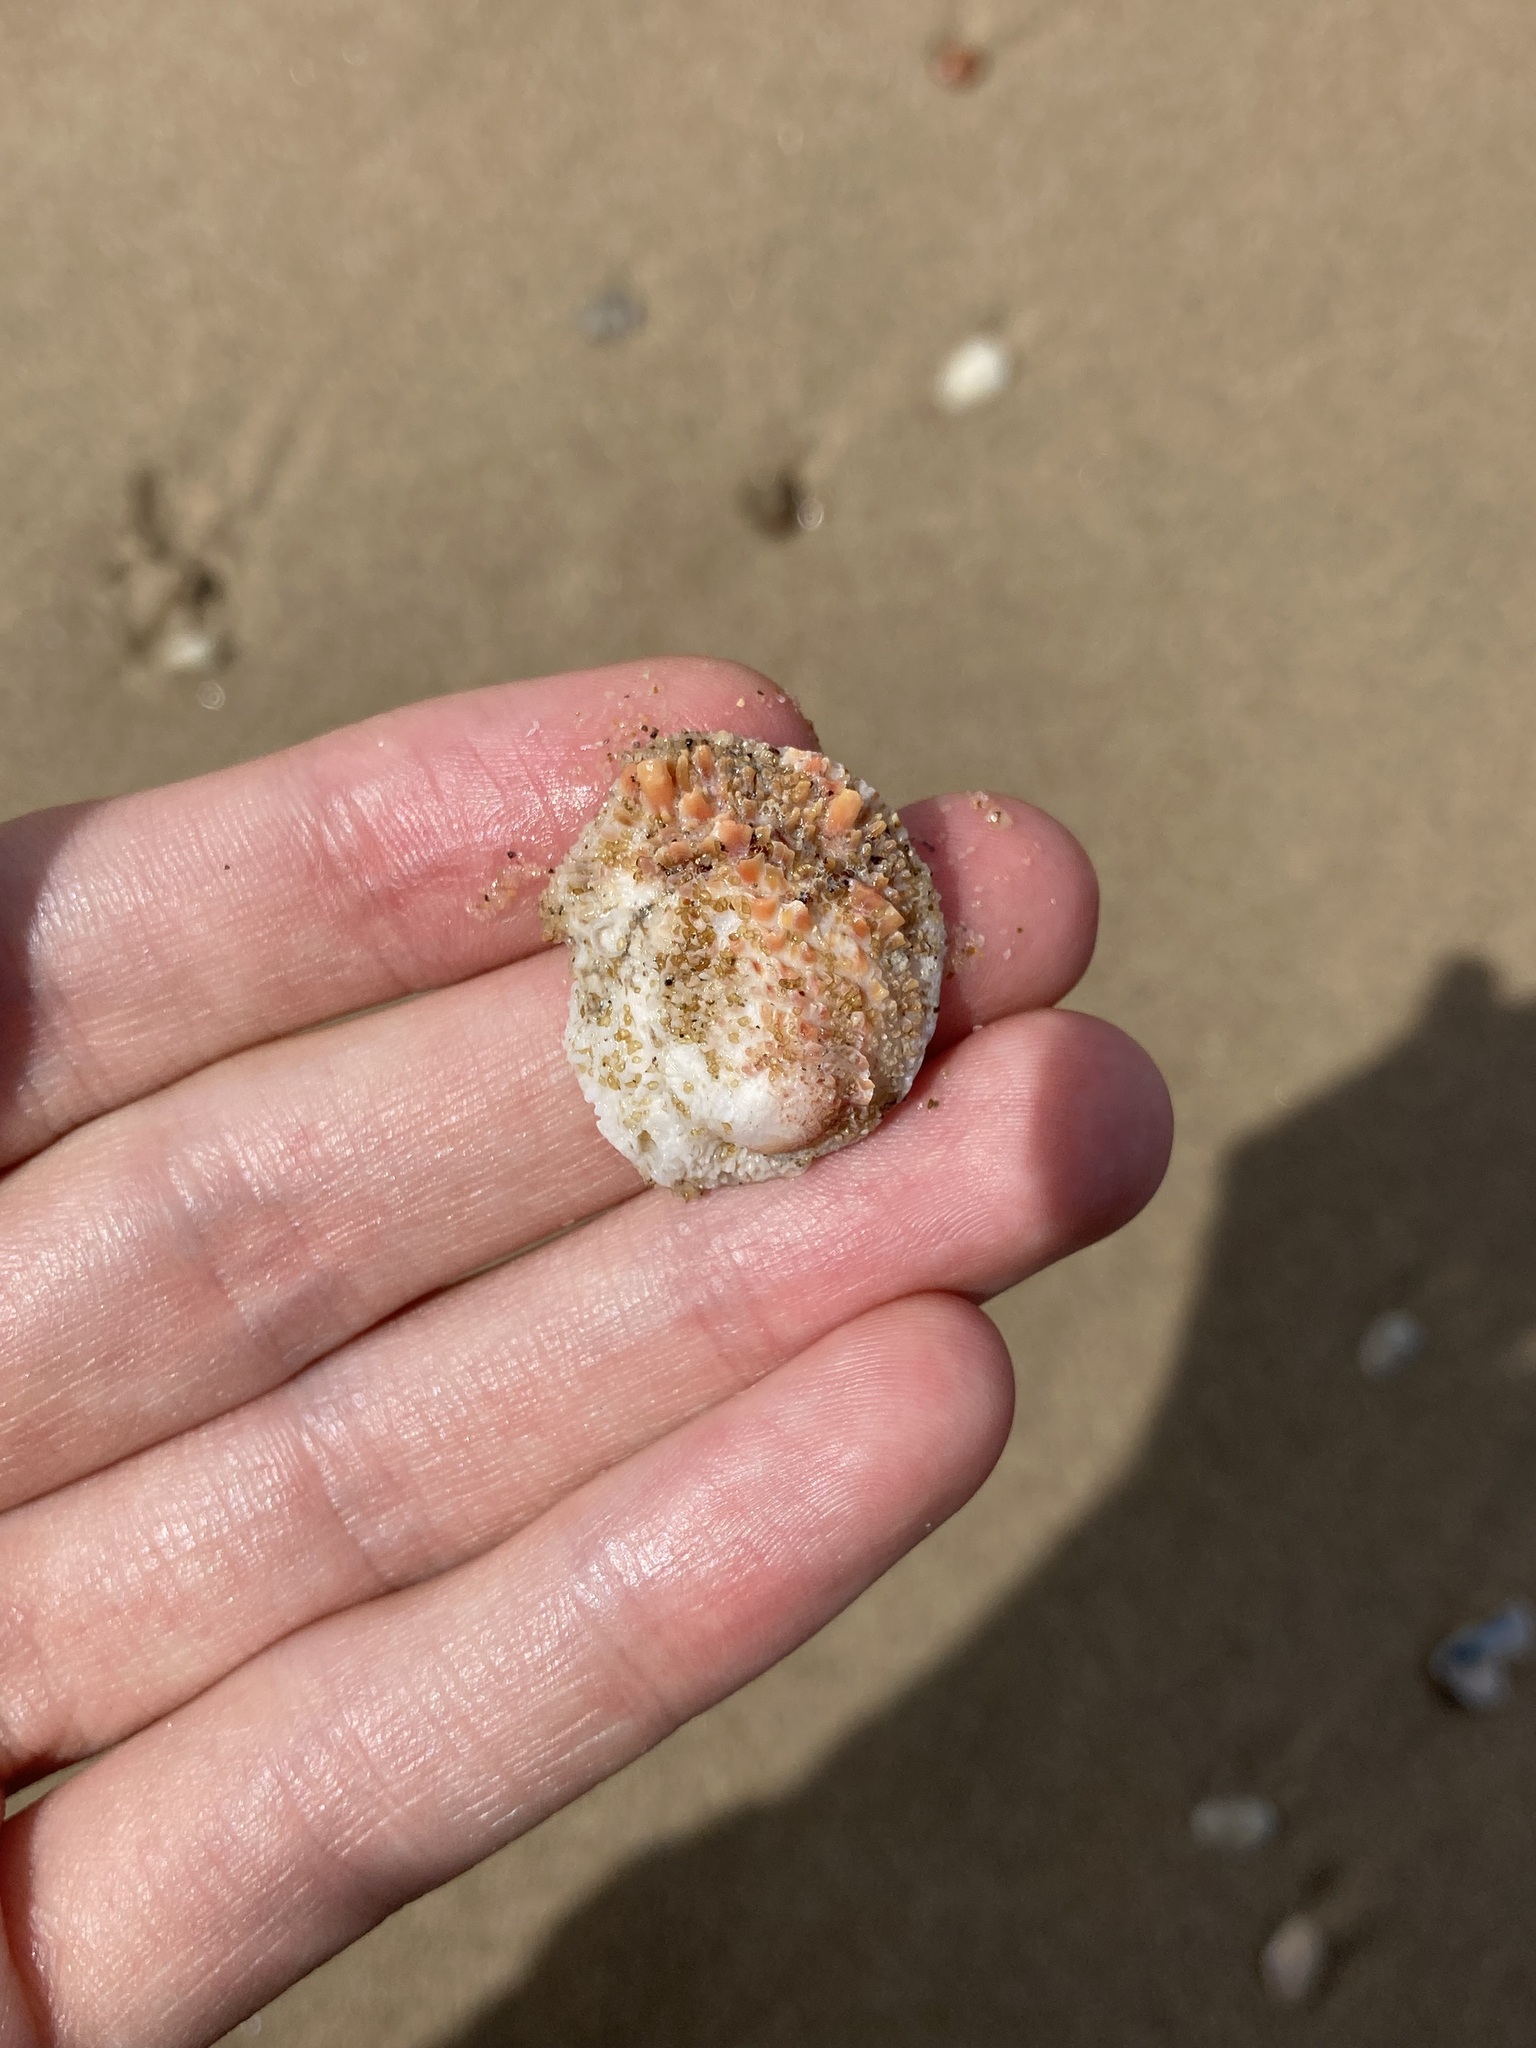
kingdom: Animalia
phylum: Mollusca
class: Bivalvia
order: Venerida
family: Chamidae
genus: Chama
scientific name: Chama asperella
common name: Mollusca
